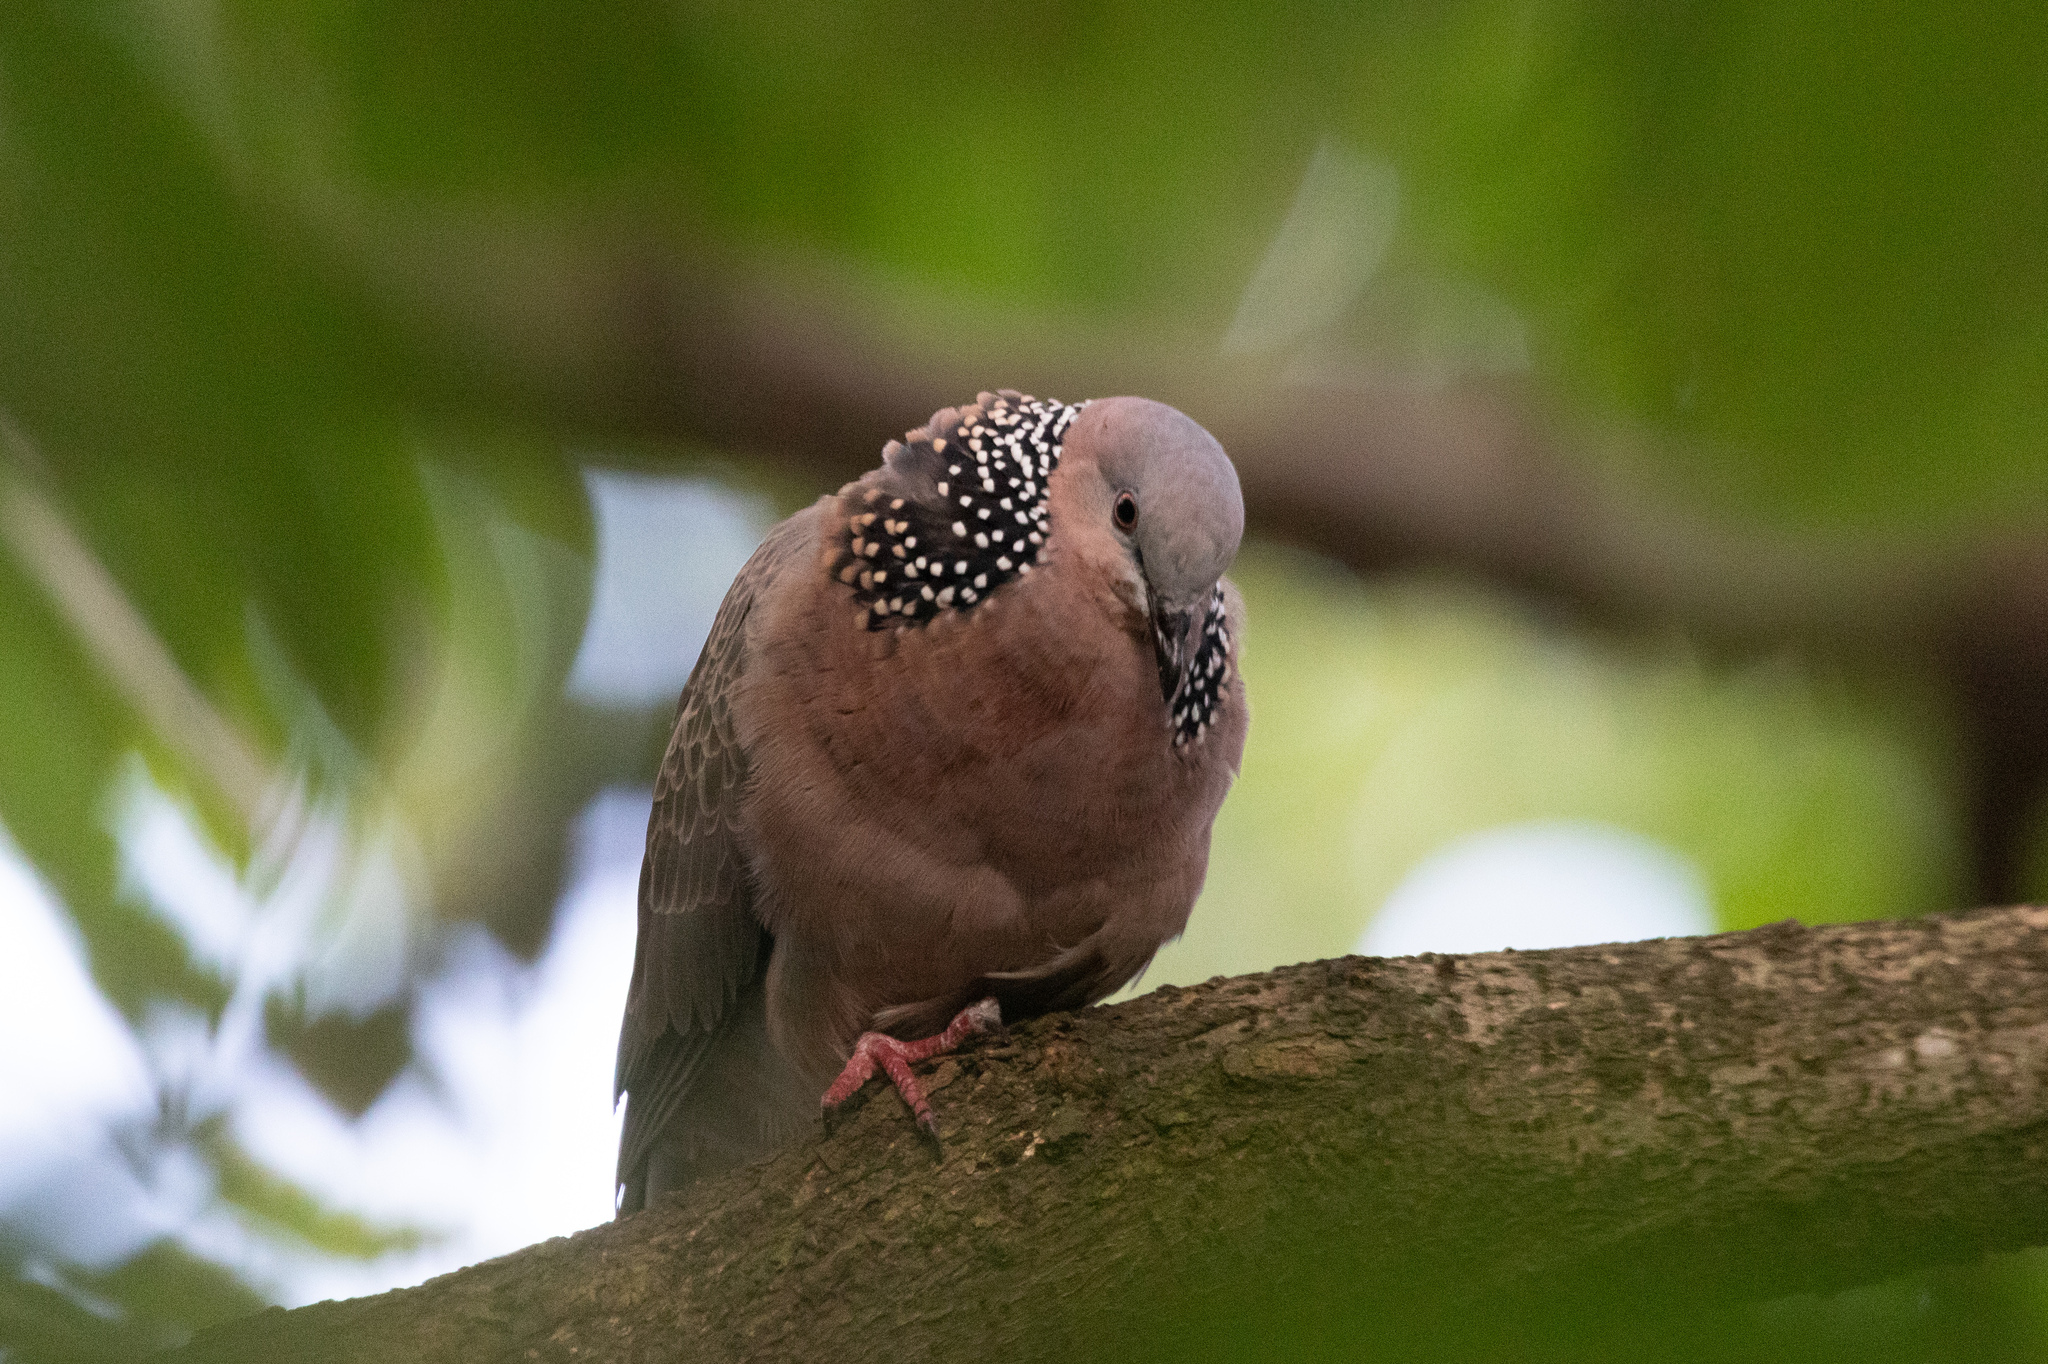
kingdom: Animalia
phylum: Chordata
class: Aves
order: Columbiformes
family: Columbidae
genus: Spilopelia
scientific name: Spilopelia chinensis
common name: Spotted dove
